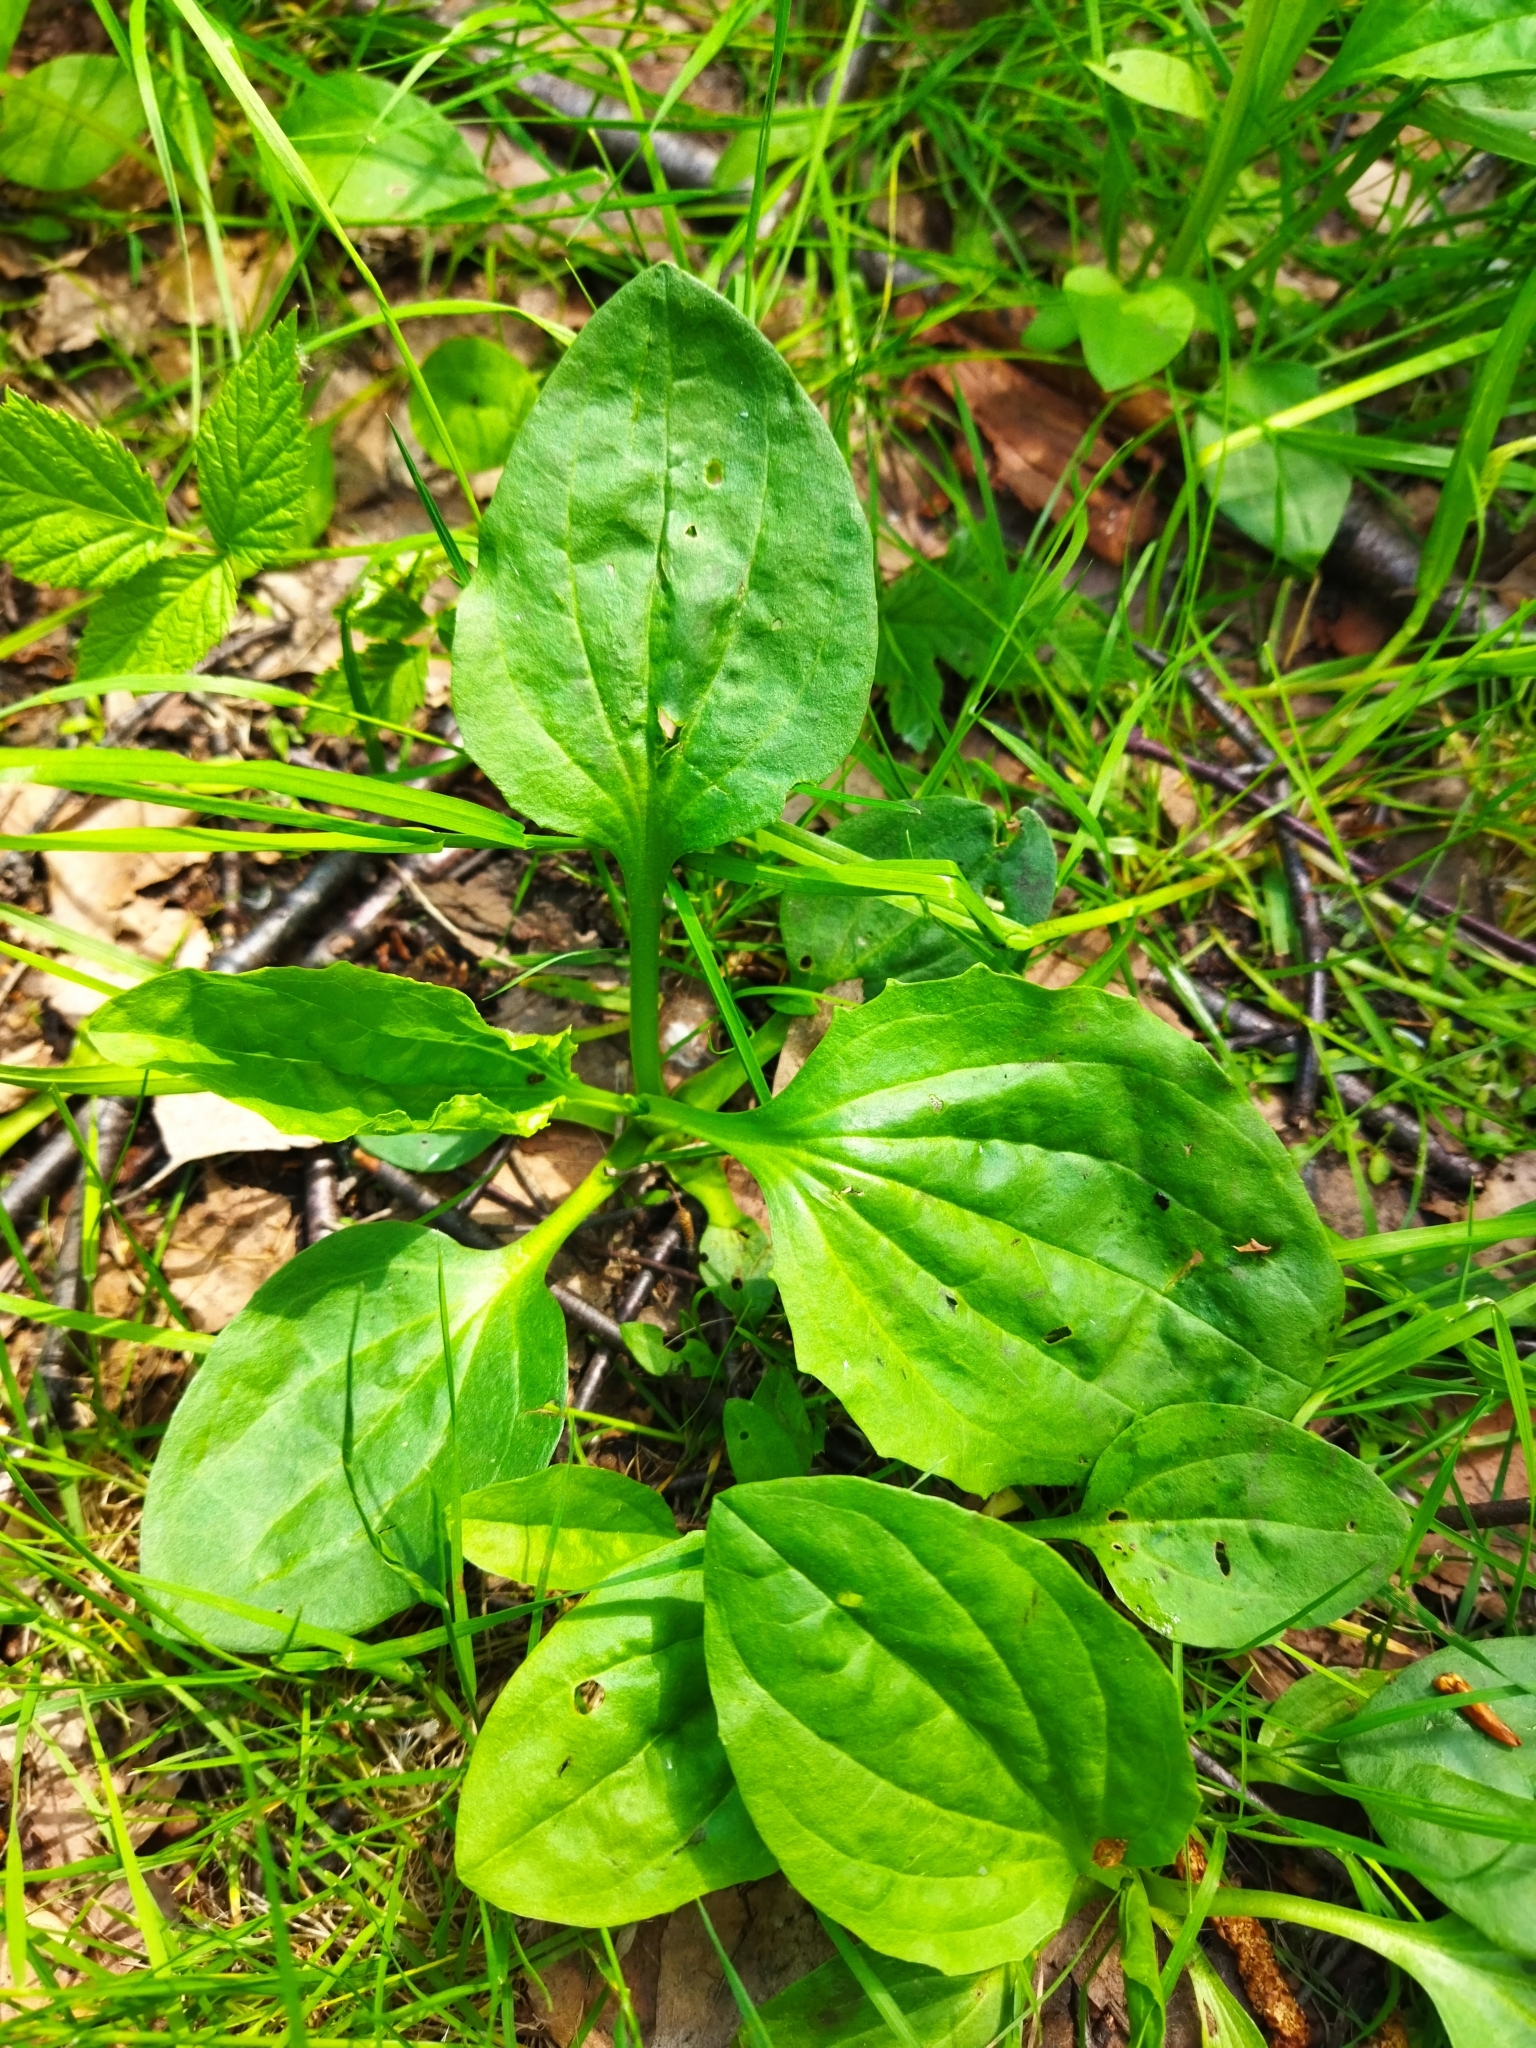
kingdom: Plantae
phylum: Tracheophyta
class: Magnoliopsida
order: Lamiales
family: Plantaginaceae
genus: Plantago
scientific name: Plantago major
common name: Common plantain
